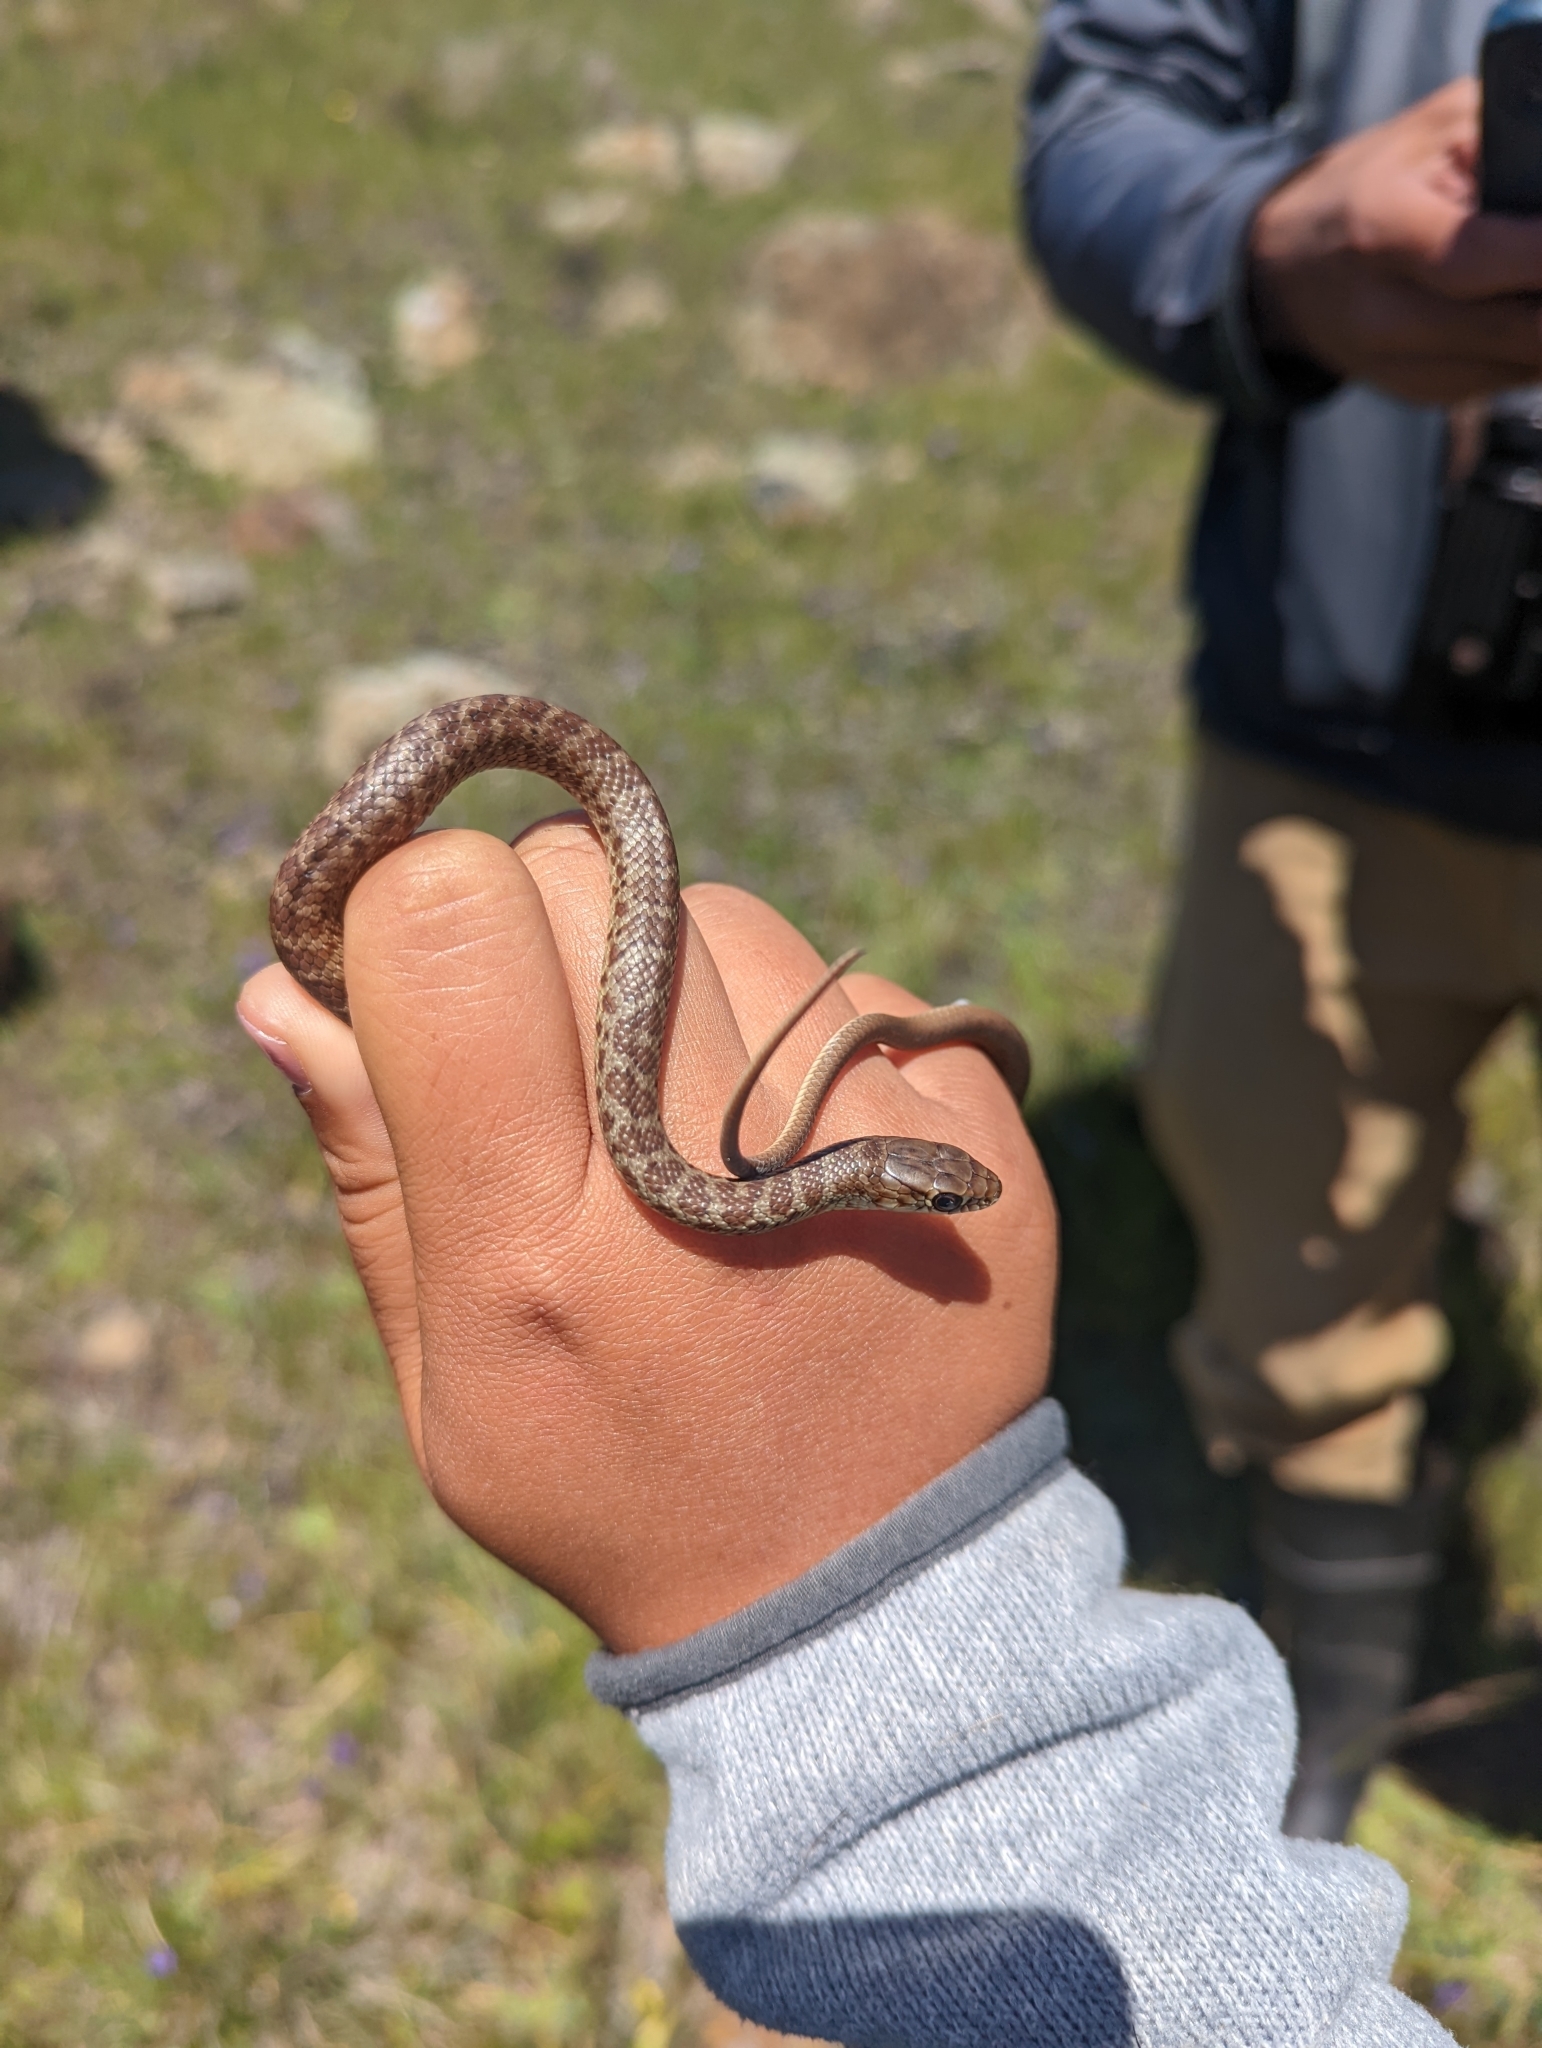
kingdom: Animalia
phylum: Chordata
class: Squamata
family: Colubridae
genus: Coluber
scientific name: Coluber constrictor
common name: Eastern racer
